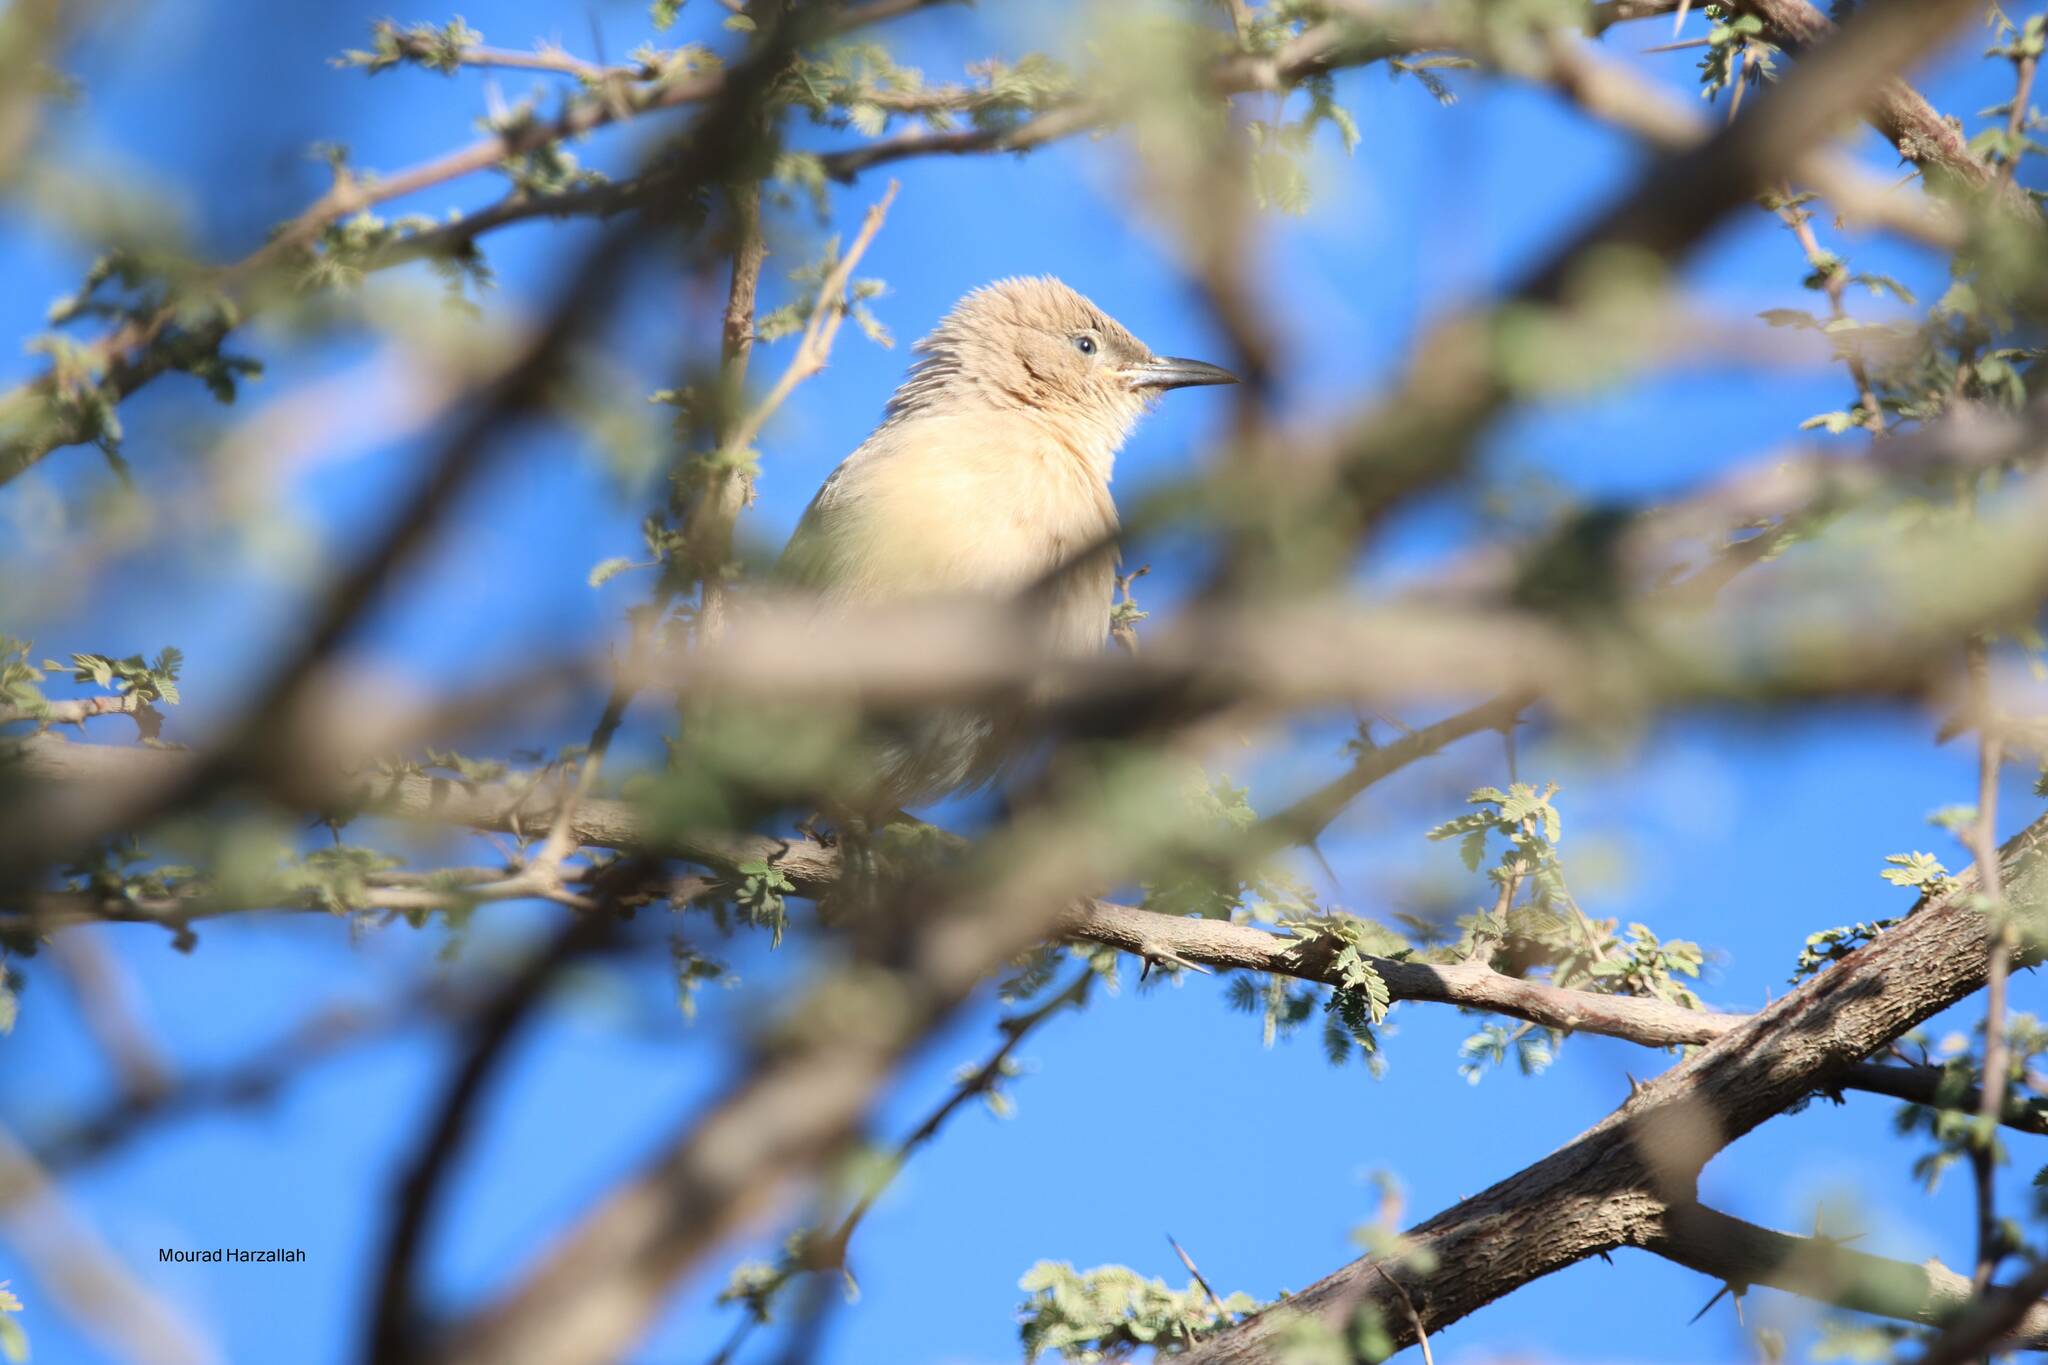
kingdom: Animalia
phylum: Chordata
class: Aves
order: Passeriformes
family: Leiothrichidae
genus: Turdoides
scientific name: Turdoides fulva
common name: Fulvous babbler
